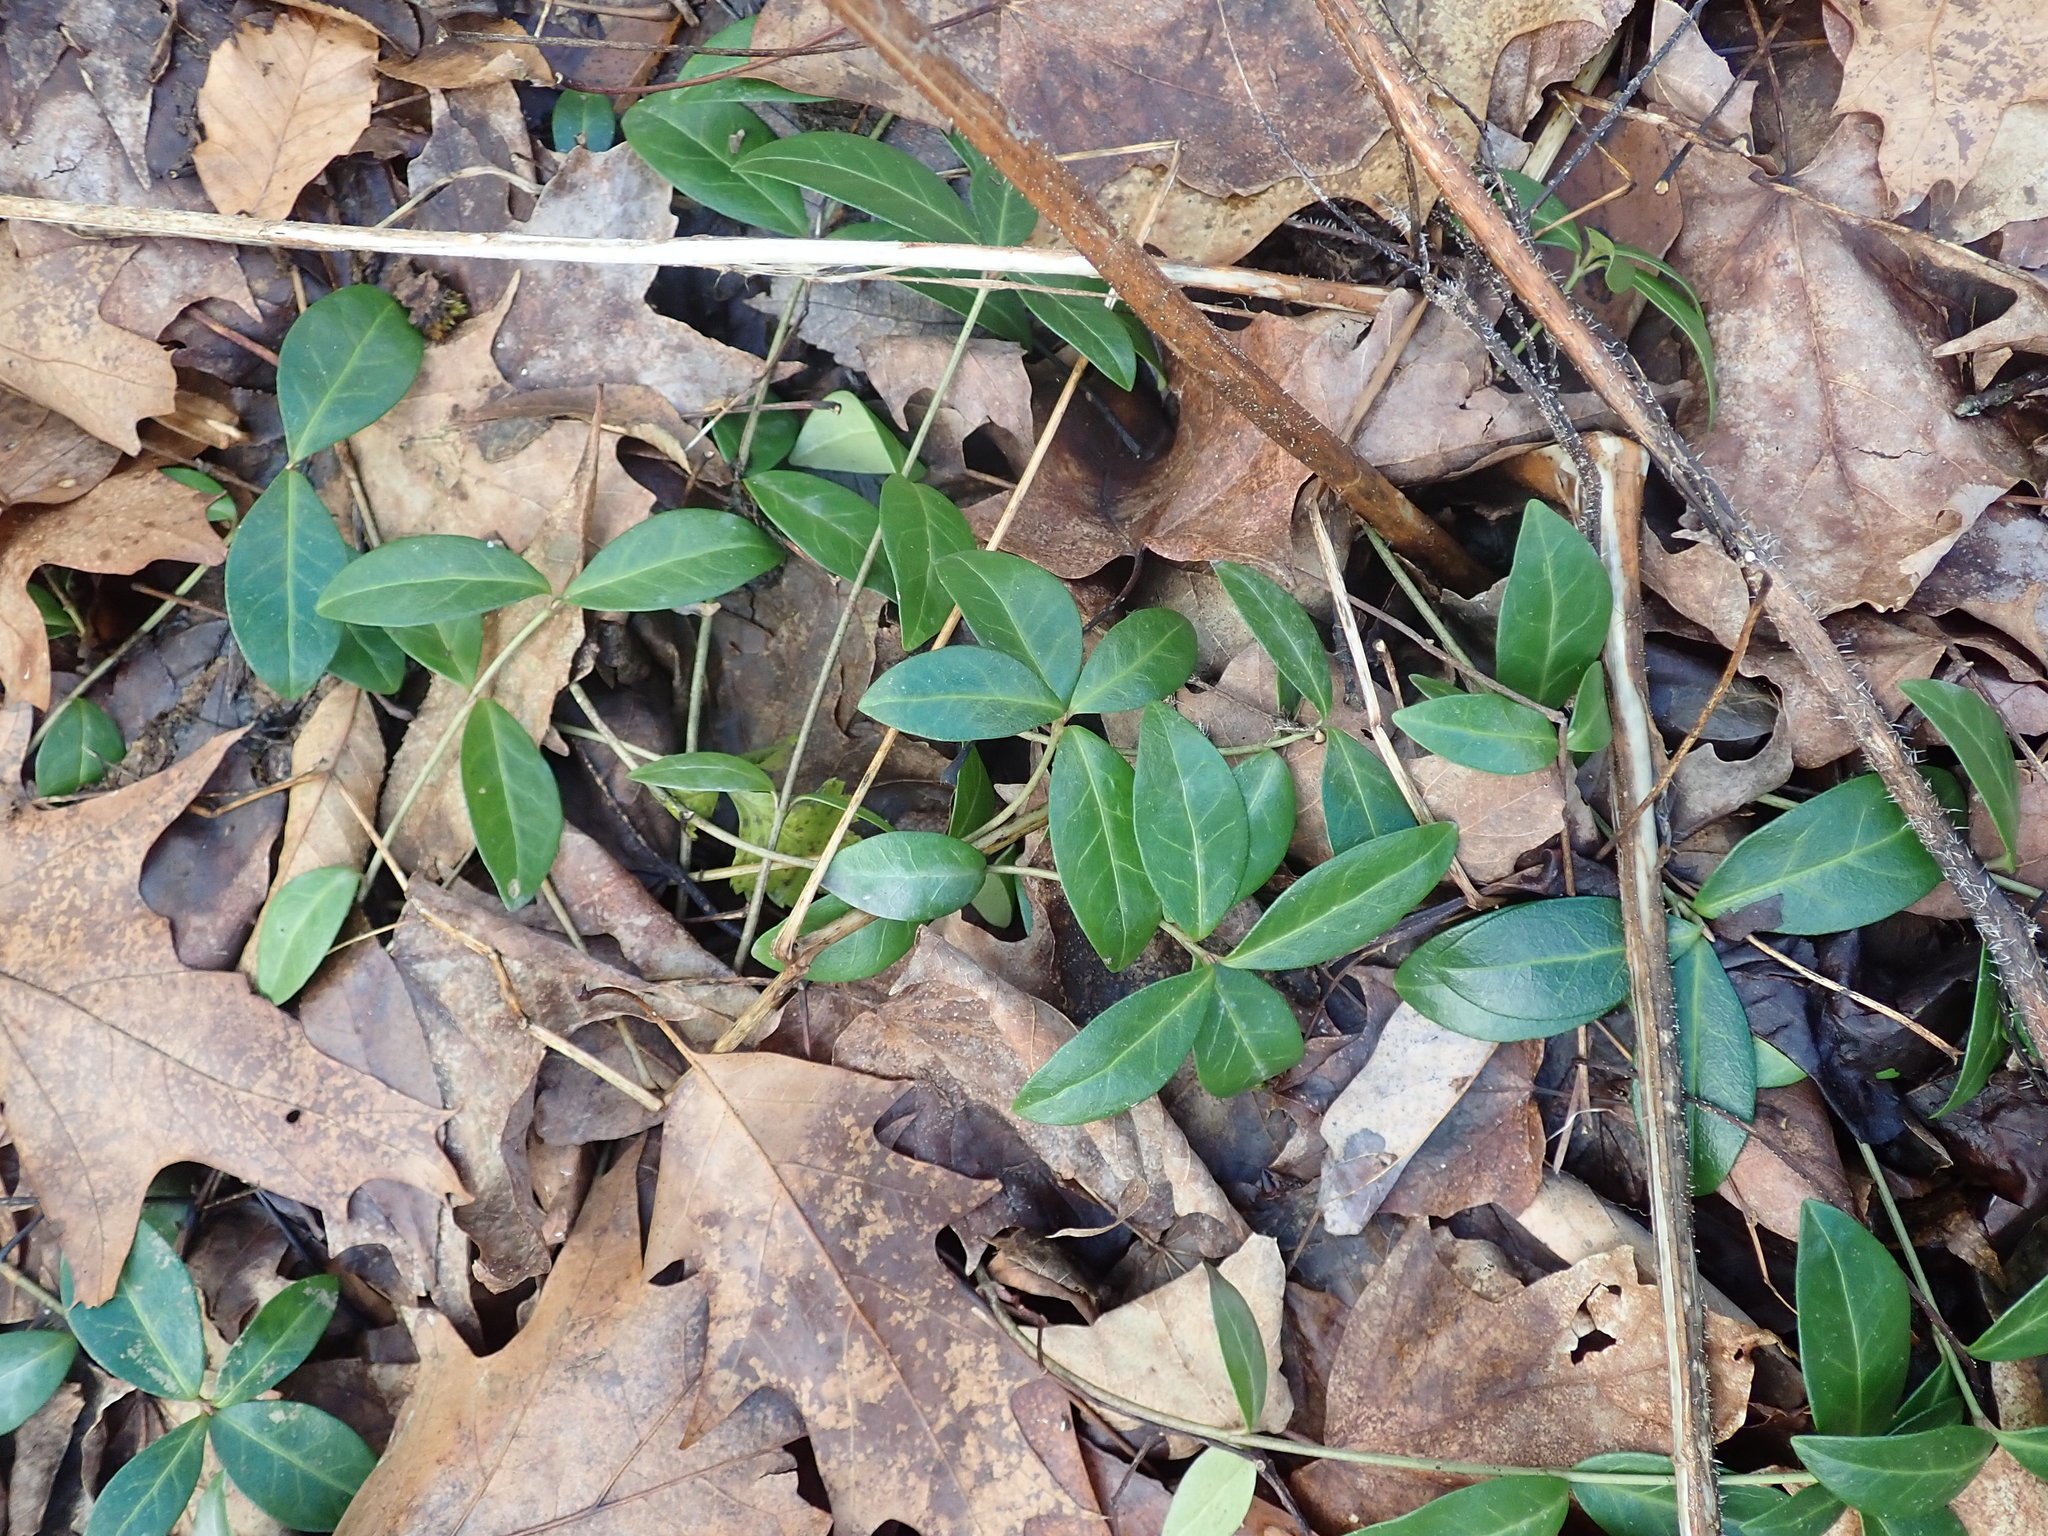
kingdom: Plantae
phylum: Tracheophyta
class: Magnoliopsida
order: Gentianales
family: Apocynaceae
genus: Vinca
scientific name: Vinca minor
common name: Lesser periwinkle
